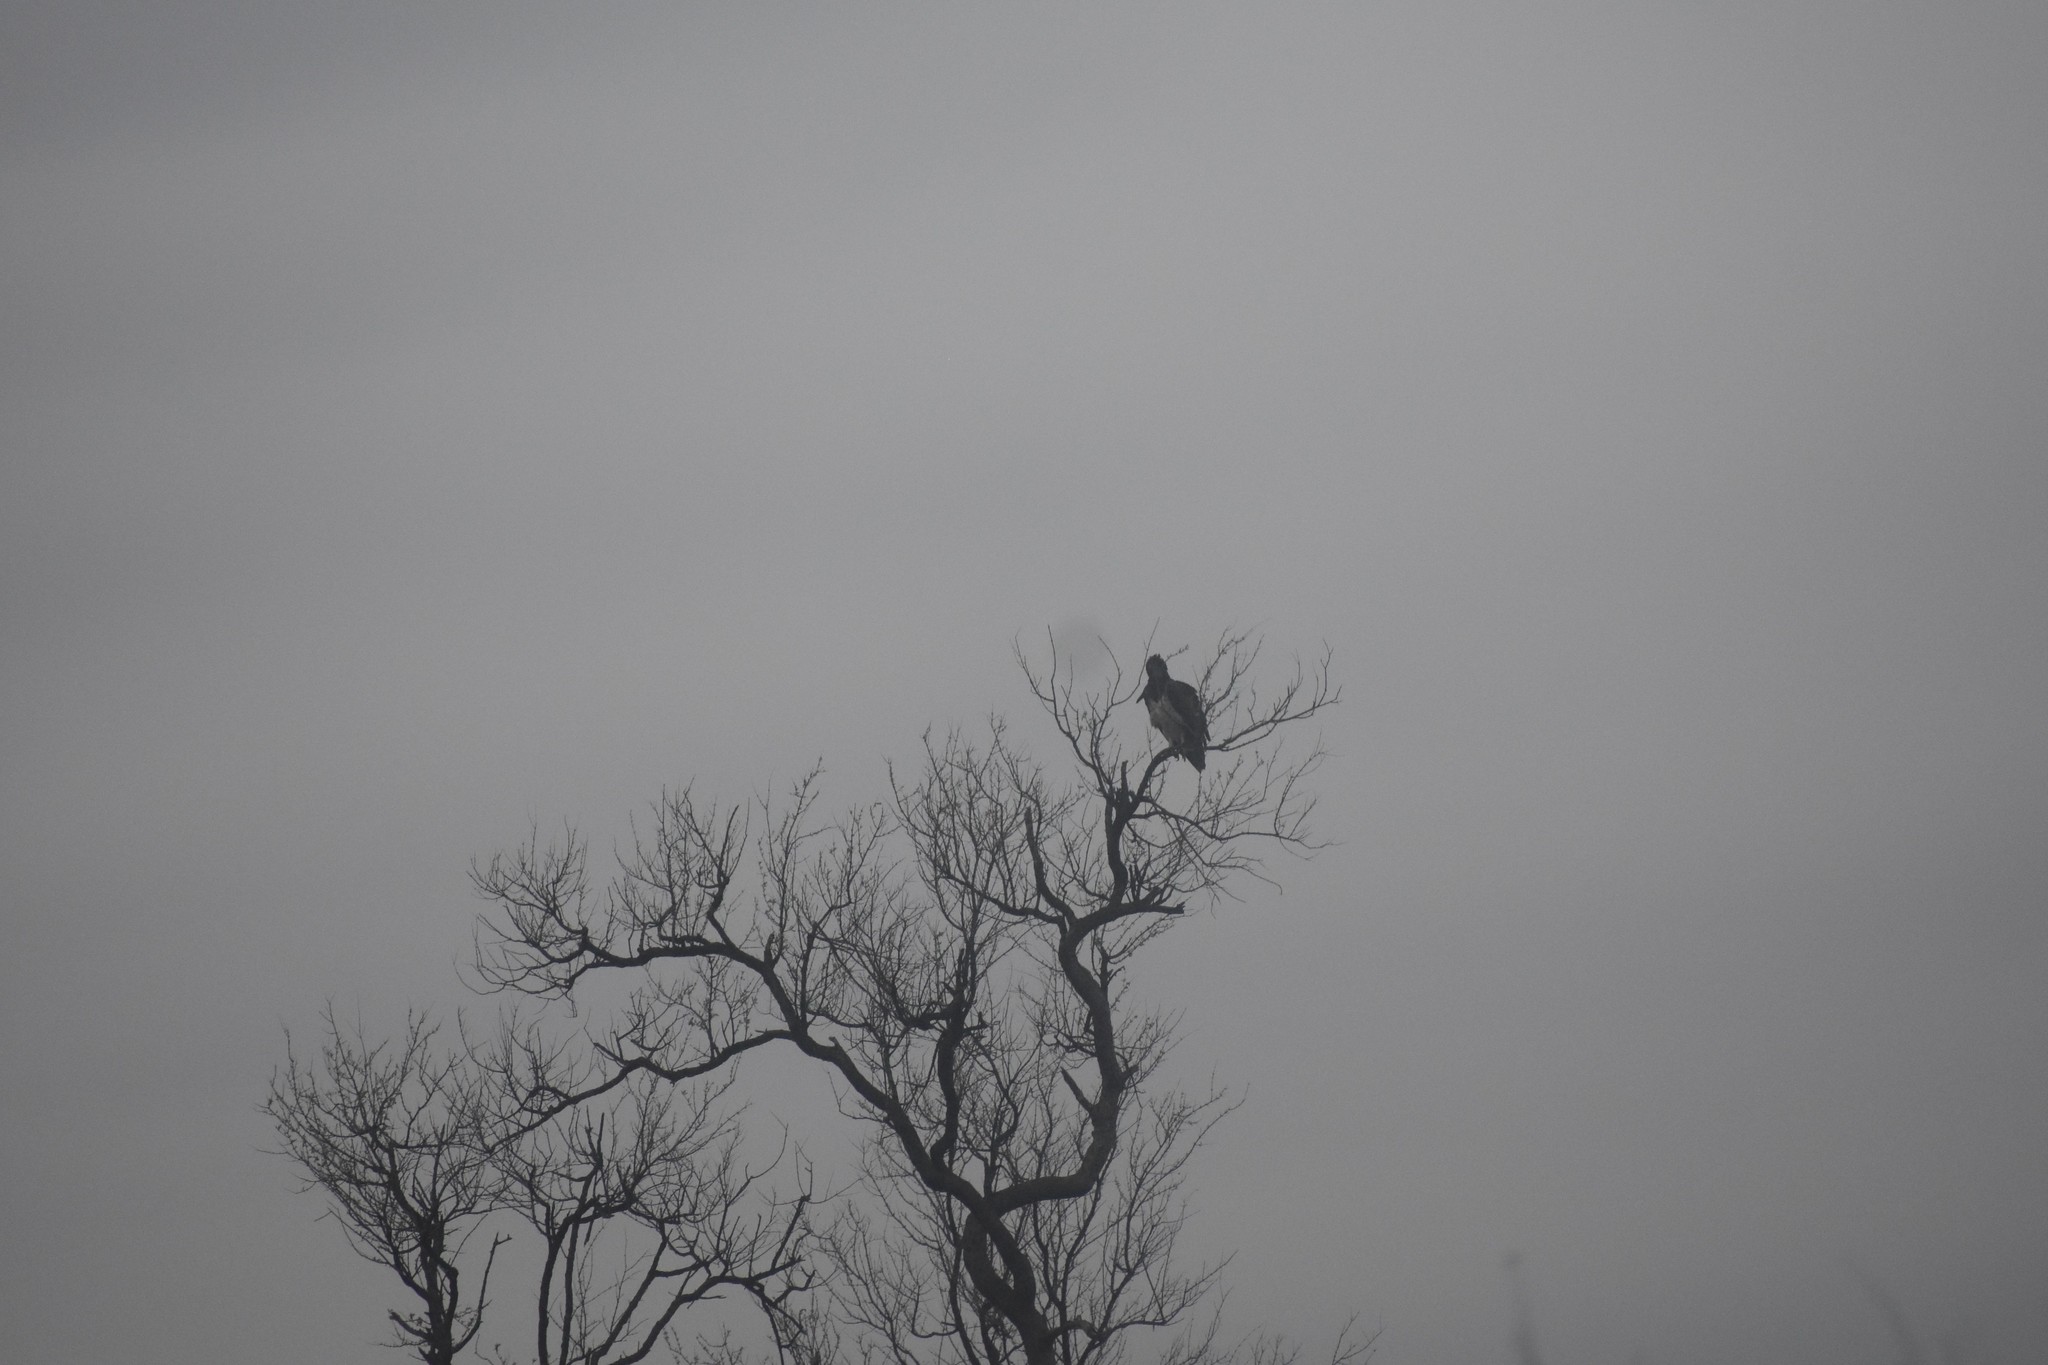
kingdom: Animalia
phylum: Chordata
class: Aves
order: Accipitriformes
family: Accipitridae
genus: Polemaetus
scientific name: Polemaetus bellicosus
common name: Martial eagle
